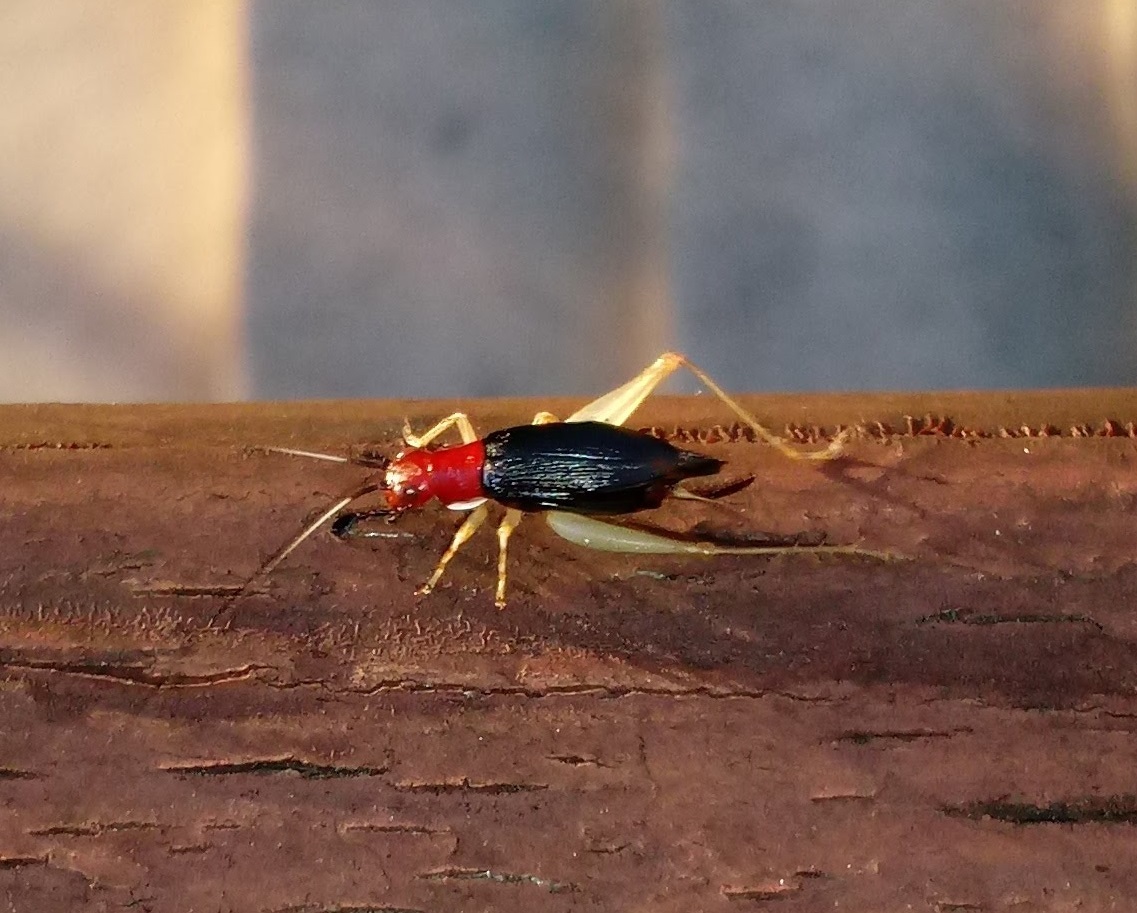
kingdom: Animalia
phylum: Arthropoda
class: Insecta
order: Orthoptera
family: Trigonidiidae
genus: Phyllopalpus
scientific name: Phyllopalpus pulchellus
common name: Handsome trig
